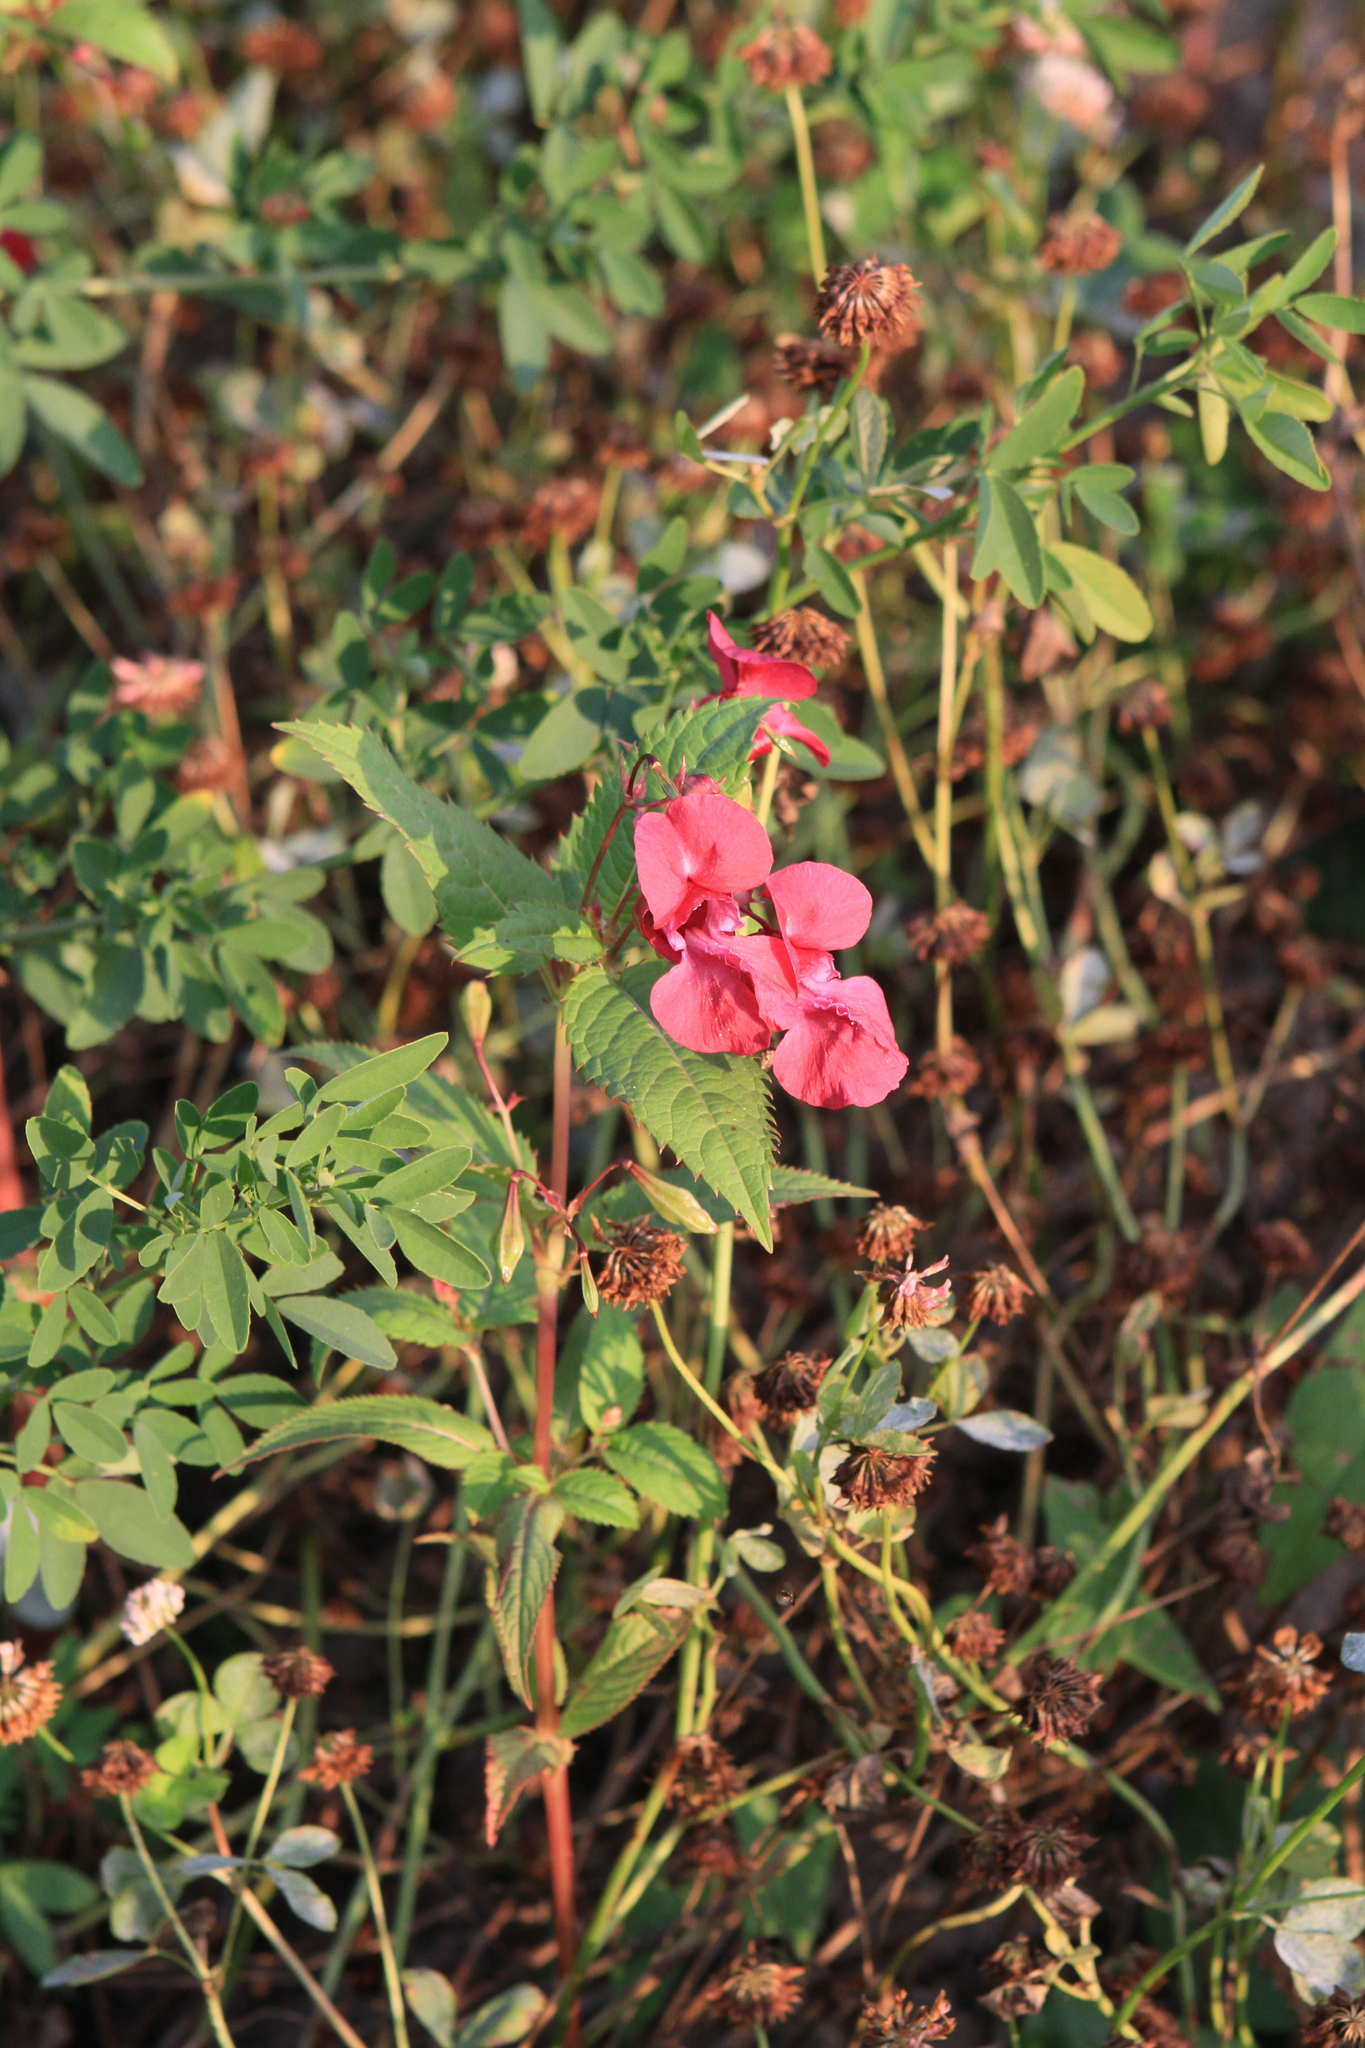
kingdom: Plantae
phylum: Tracheophyta
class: Magnoliopsida
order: Ericales
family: Balsaminaceae
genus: Impatiens
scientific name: Impatiens glandulifera
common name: Himalayan balsam
